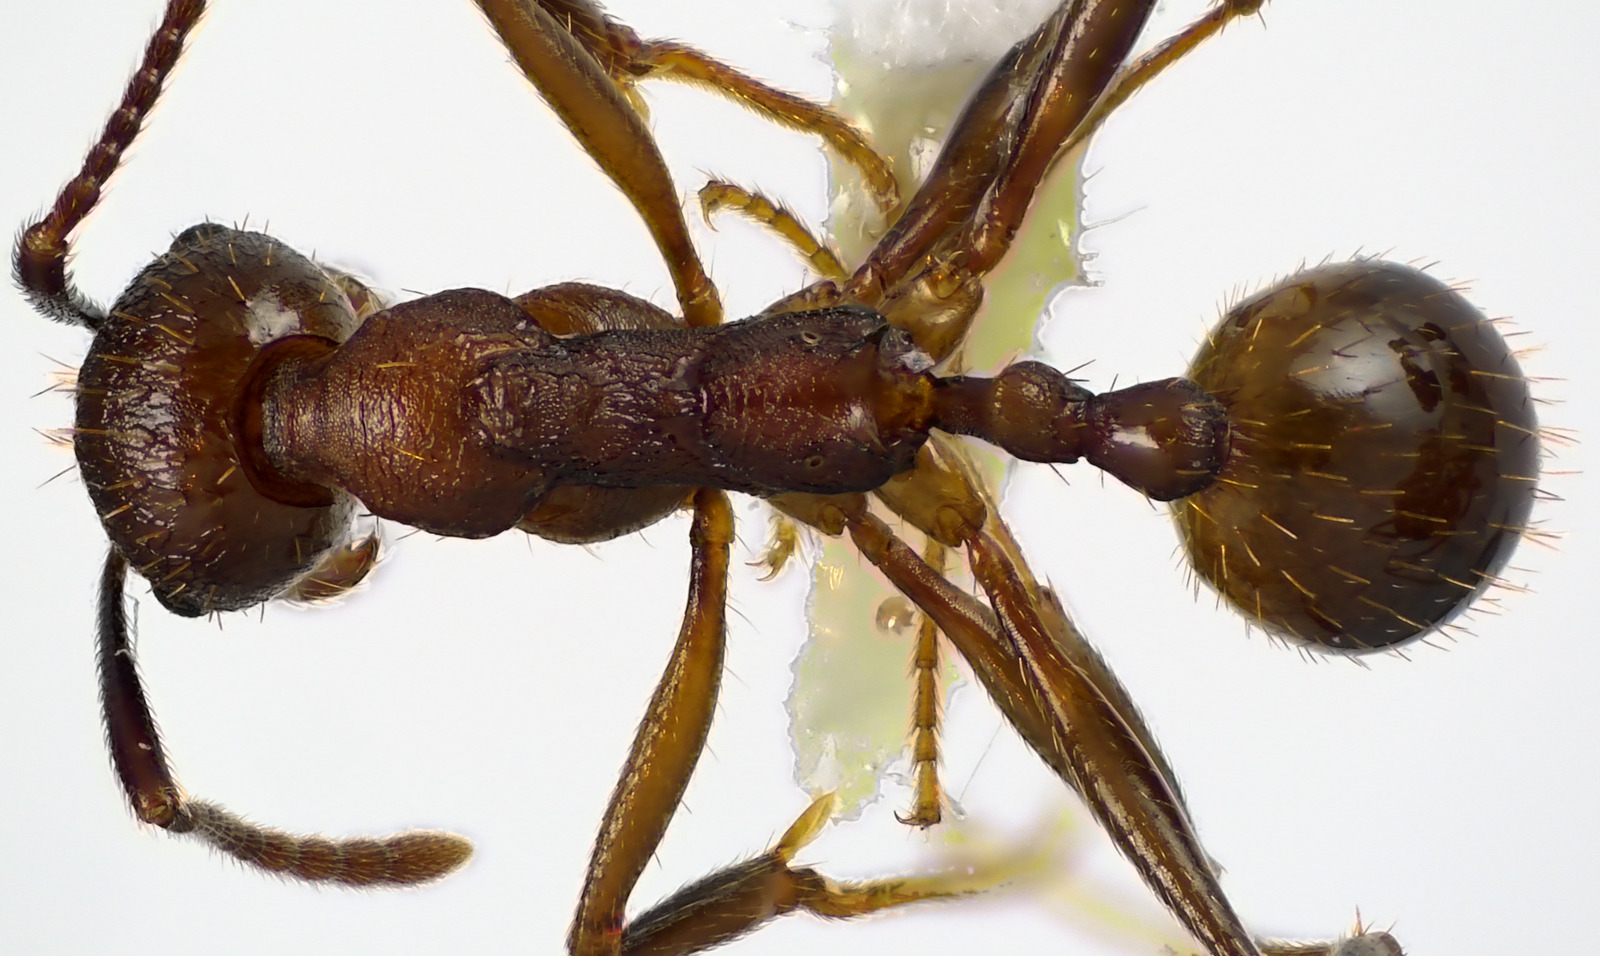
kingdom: Animalia
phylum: Arthropoda
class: Insecta
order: Hymenoptera
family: Formicidae
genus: Aphaenogaster
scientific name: Aphaenogaster fulva
